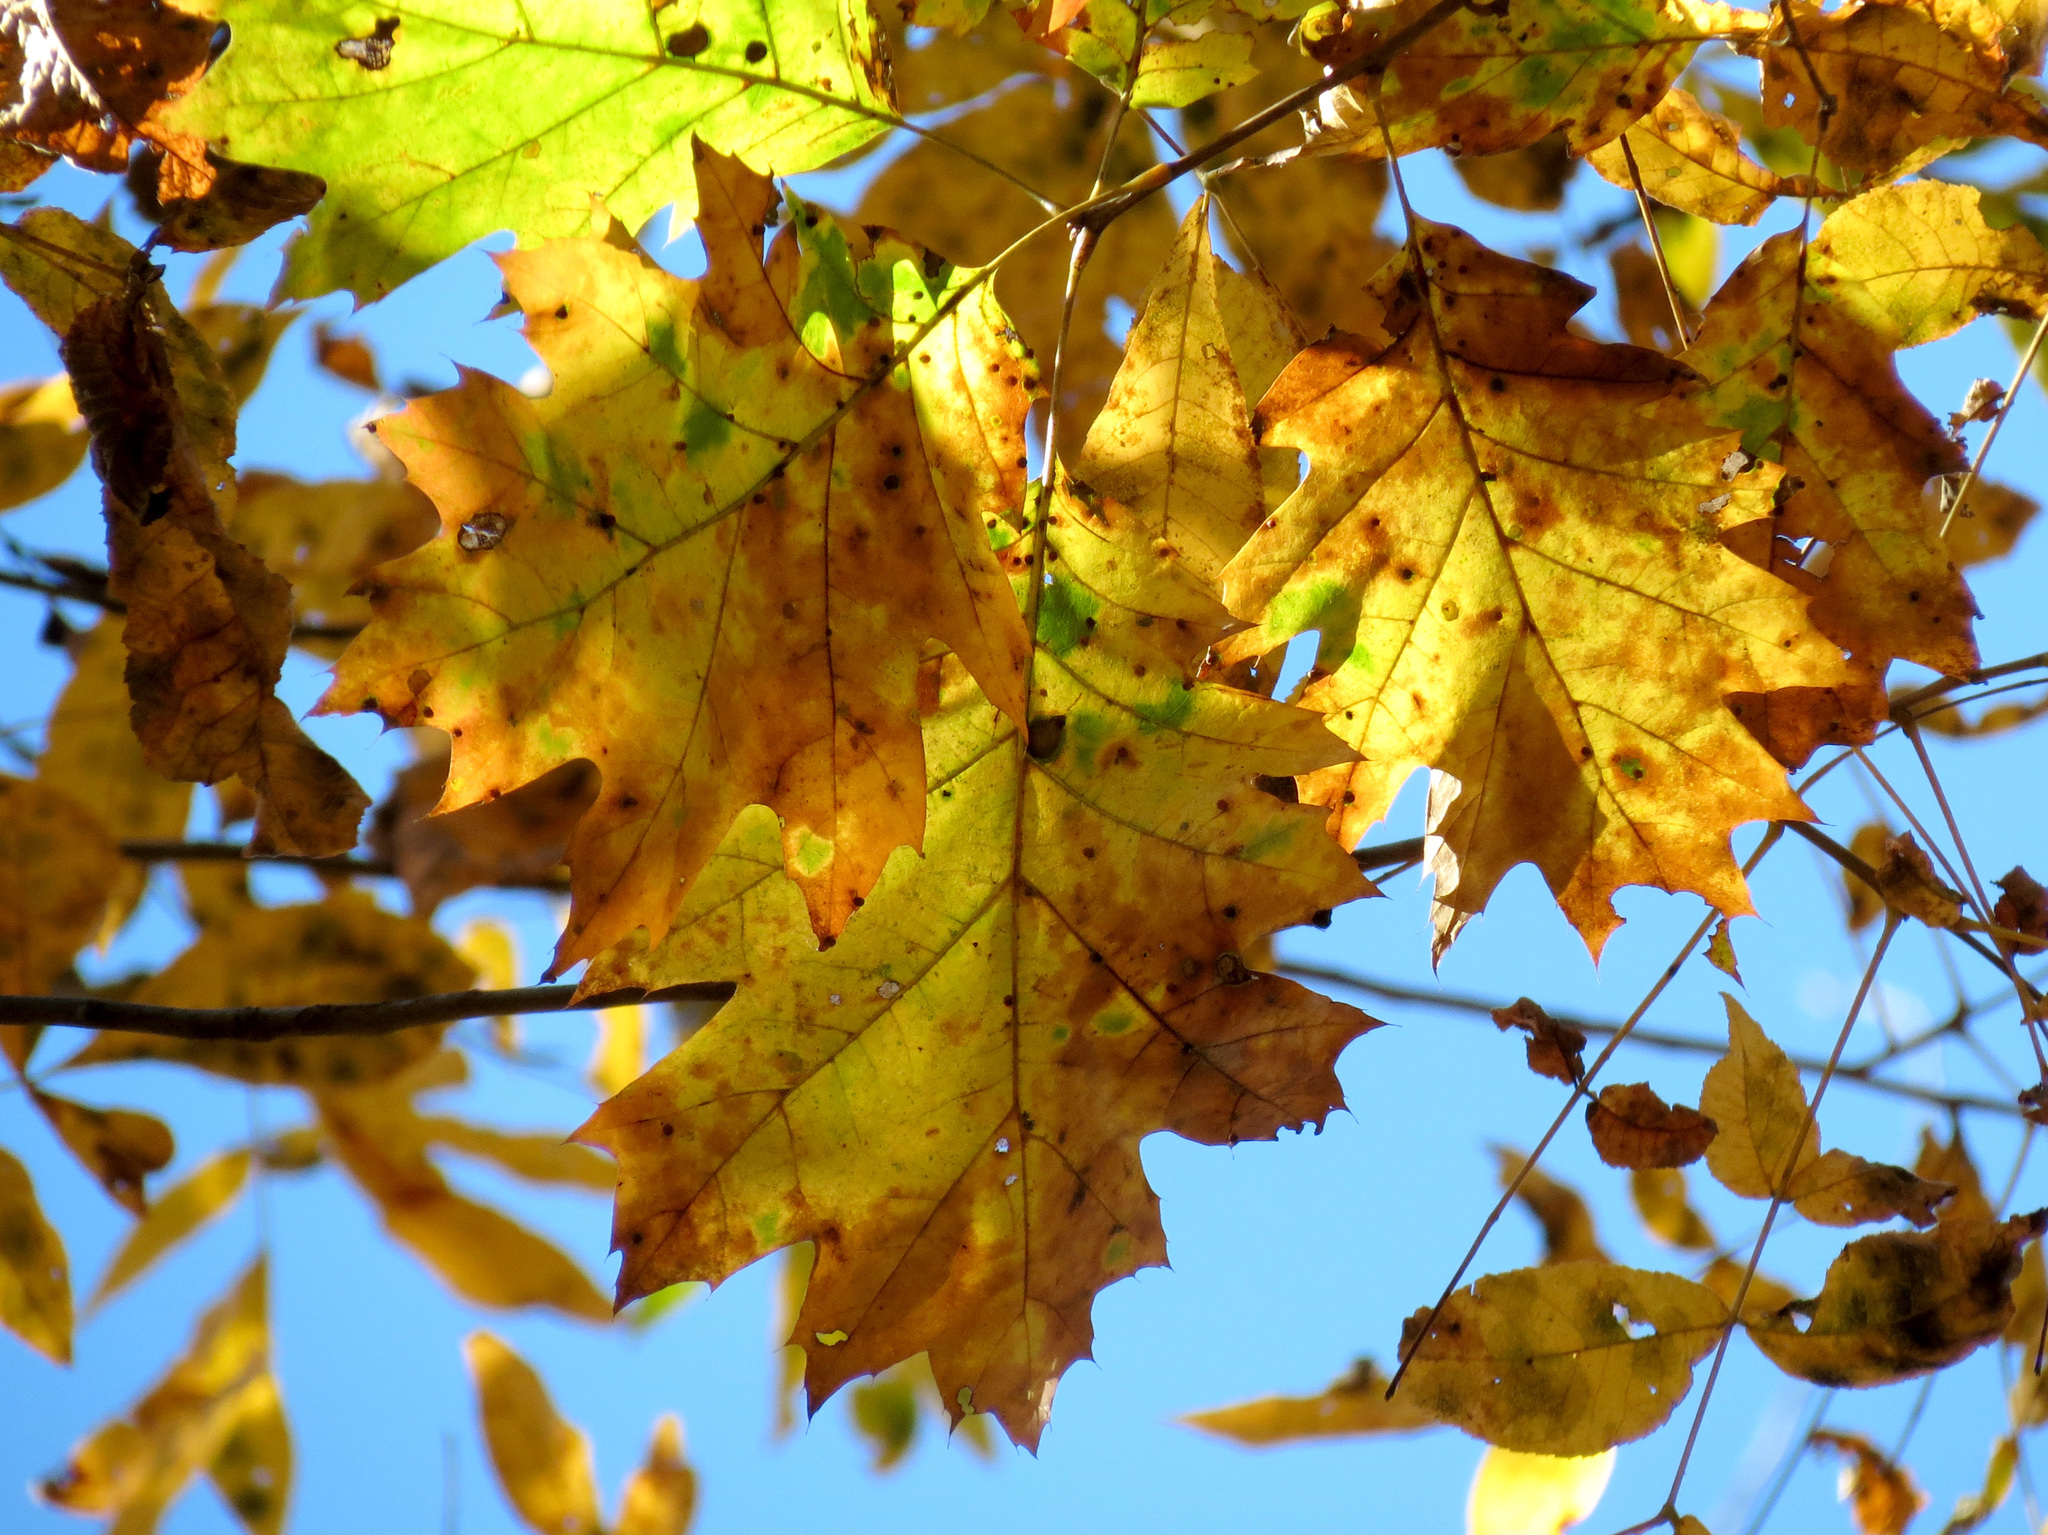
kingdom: Plantae
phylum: Tracheophyta
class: Magnoliopsida
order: Fagales
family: Fagaceae
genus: Quercus
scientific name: Quercus rubra
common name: Red oak
